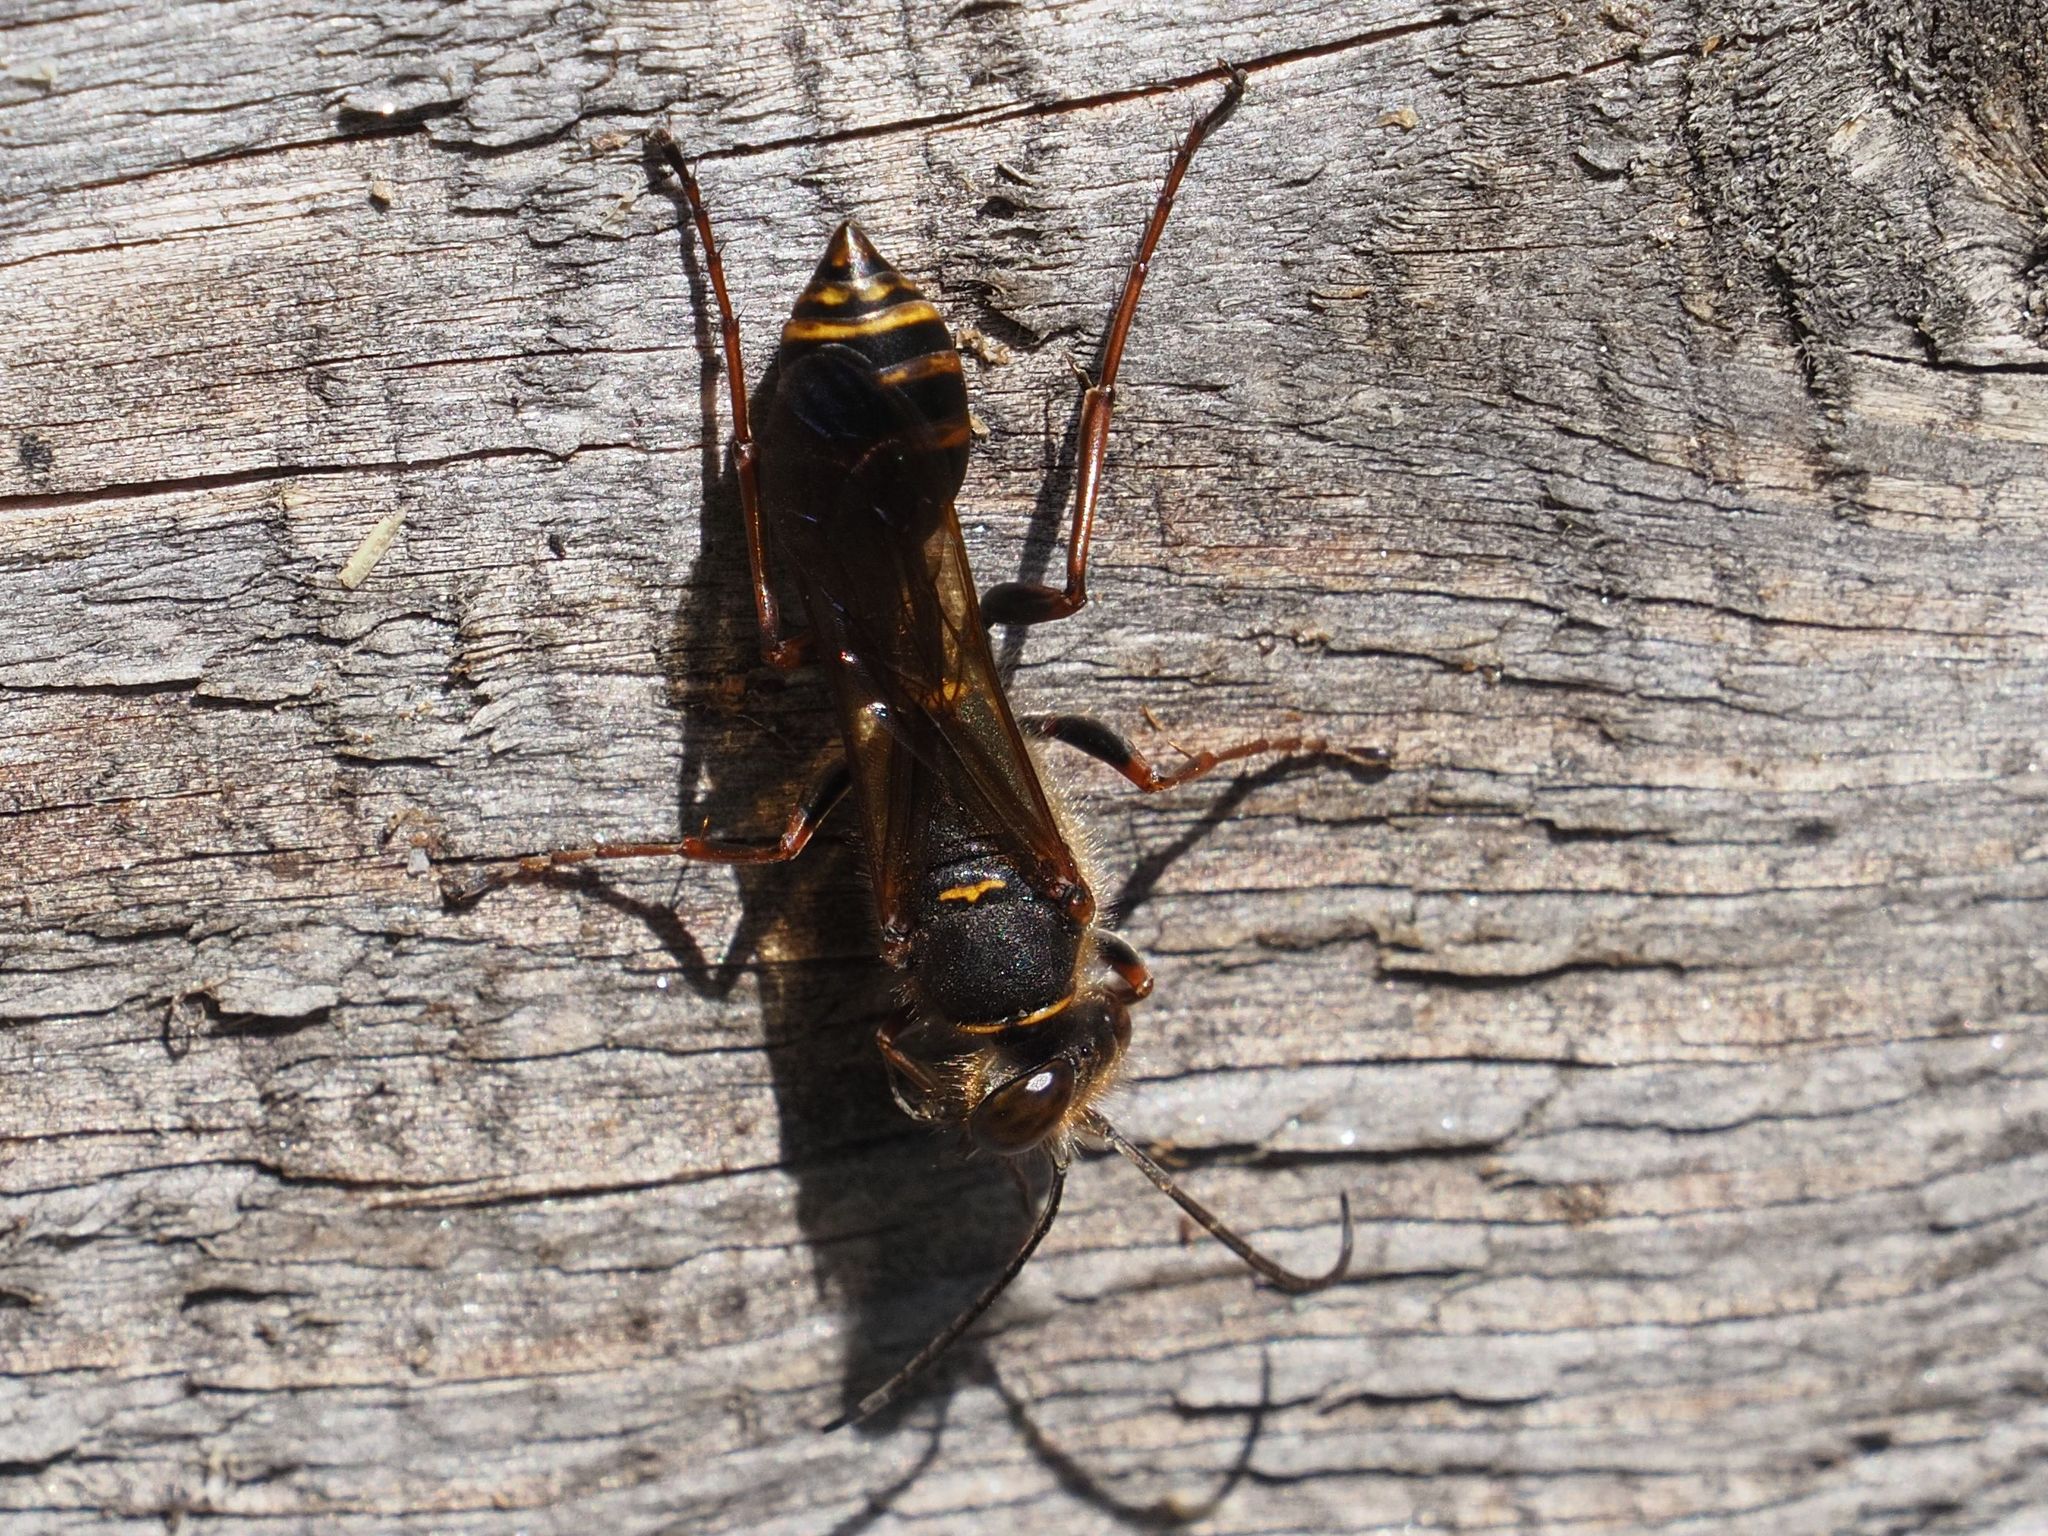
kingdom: Animalia
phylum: Arthropoda
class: Insecta
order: Hymenoptera
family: Sphecidae
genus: Sceliphron
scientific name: Sceliphron curvatum
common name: Pèlopèe
